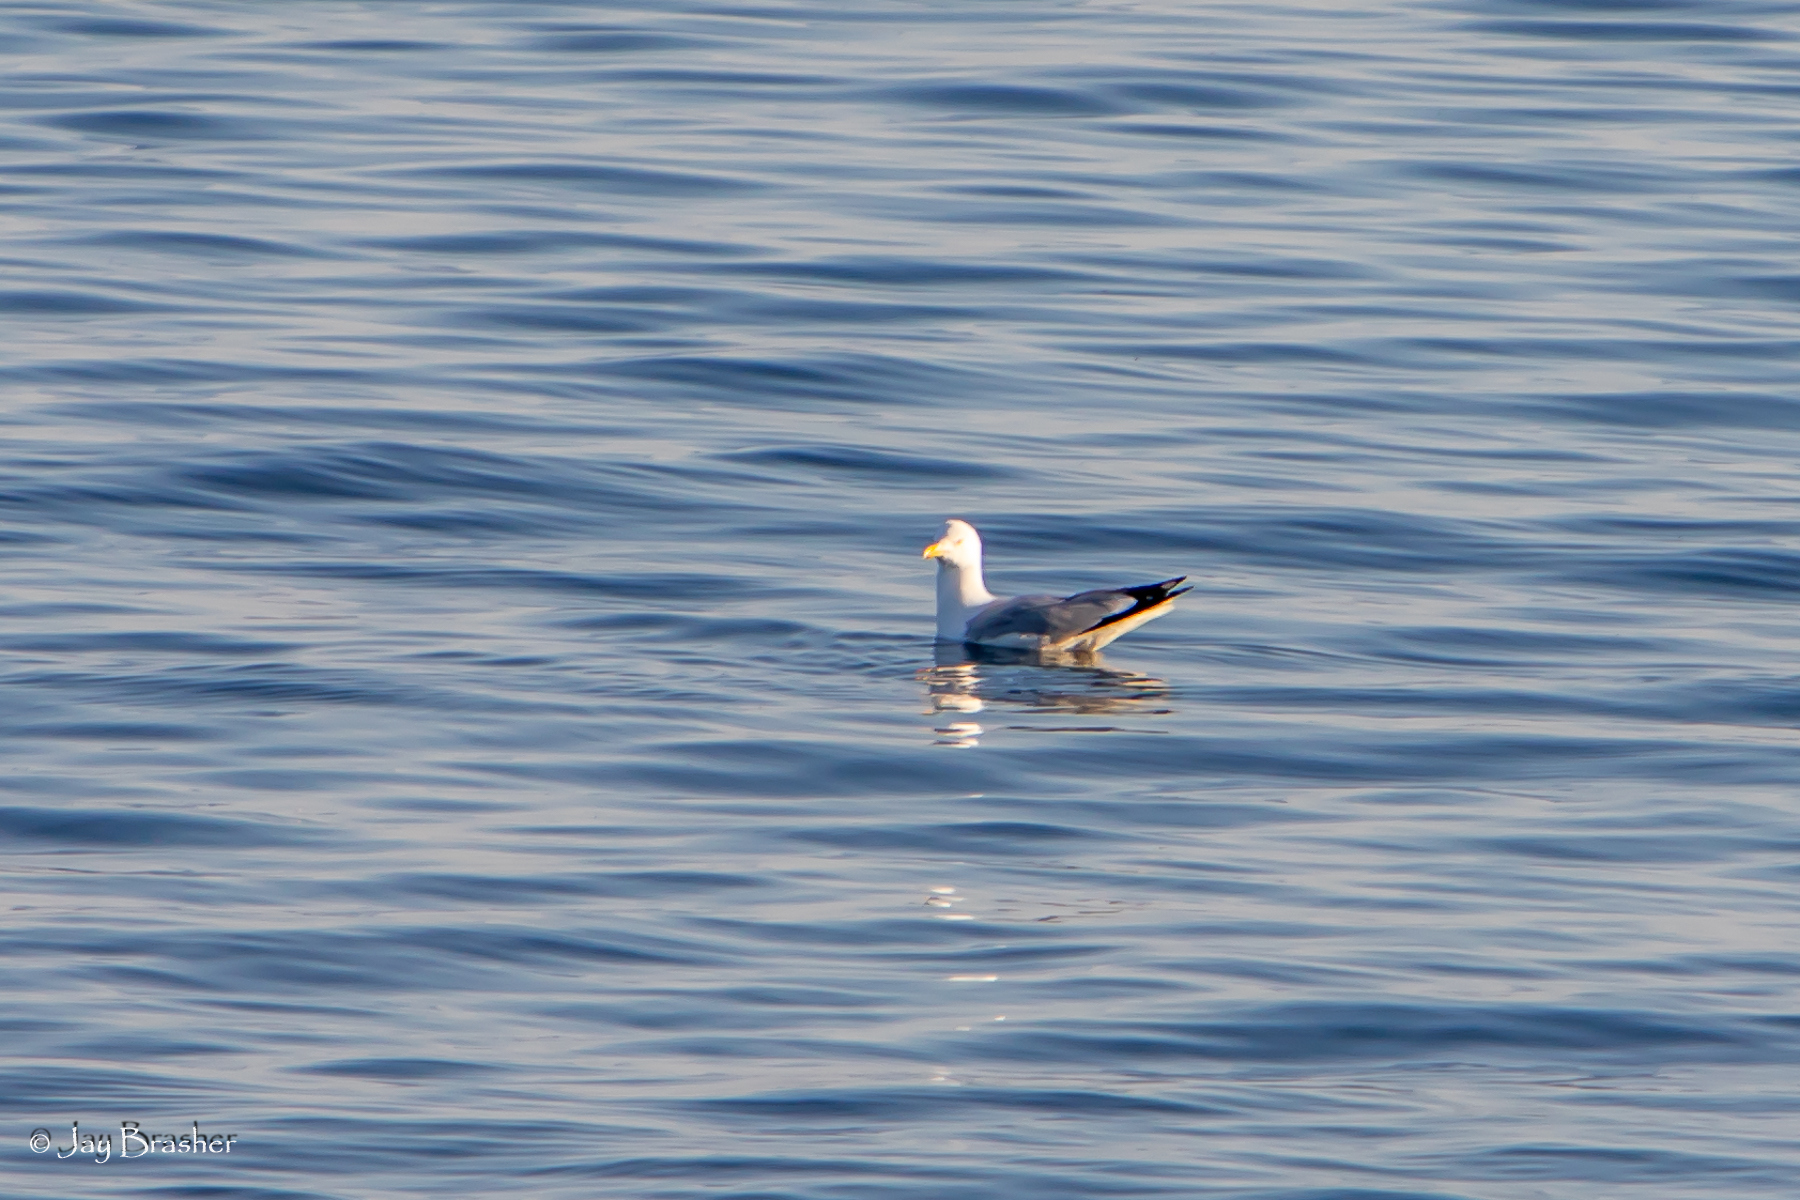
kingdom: Animalia
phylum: Chordata
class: Aves
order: Charadriiformes
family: Laridae
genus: Larus
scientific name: Larus argentatus
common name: Herring gull
